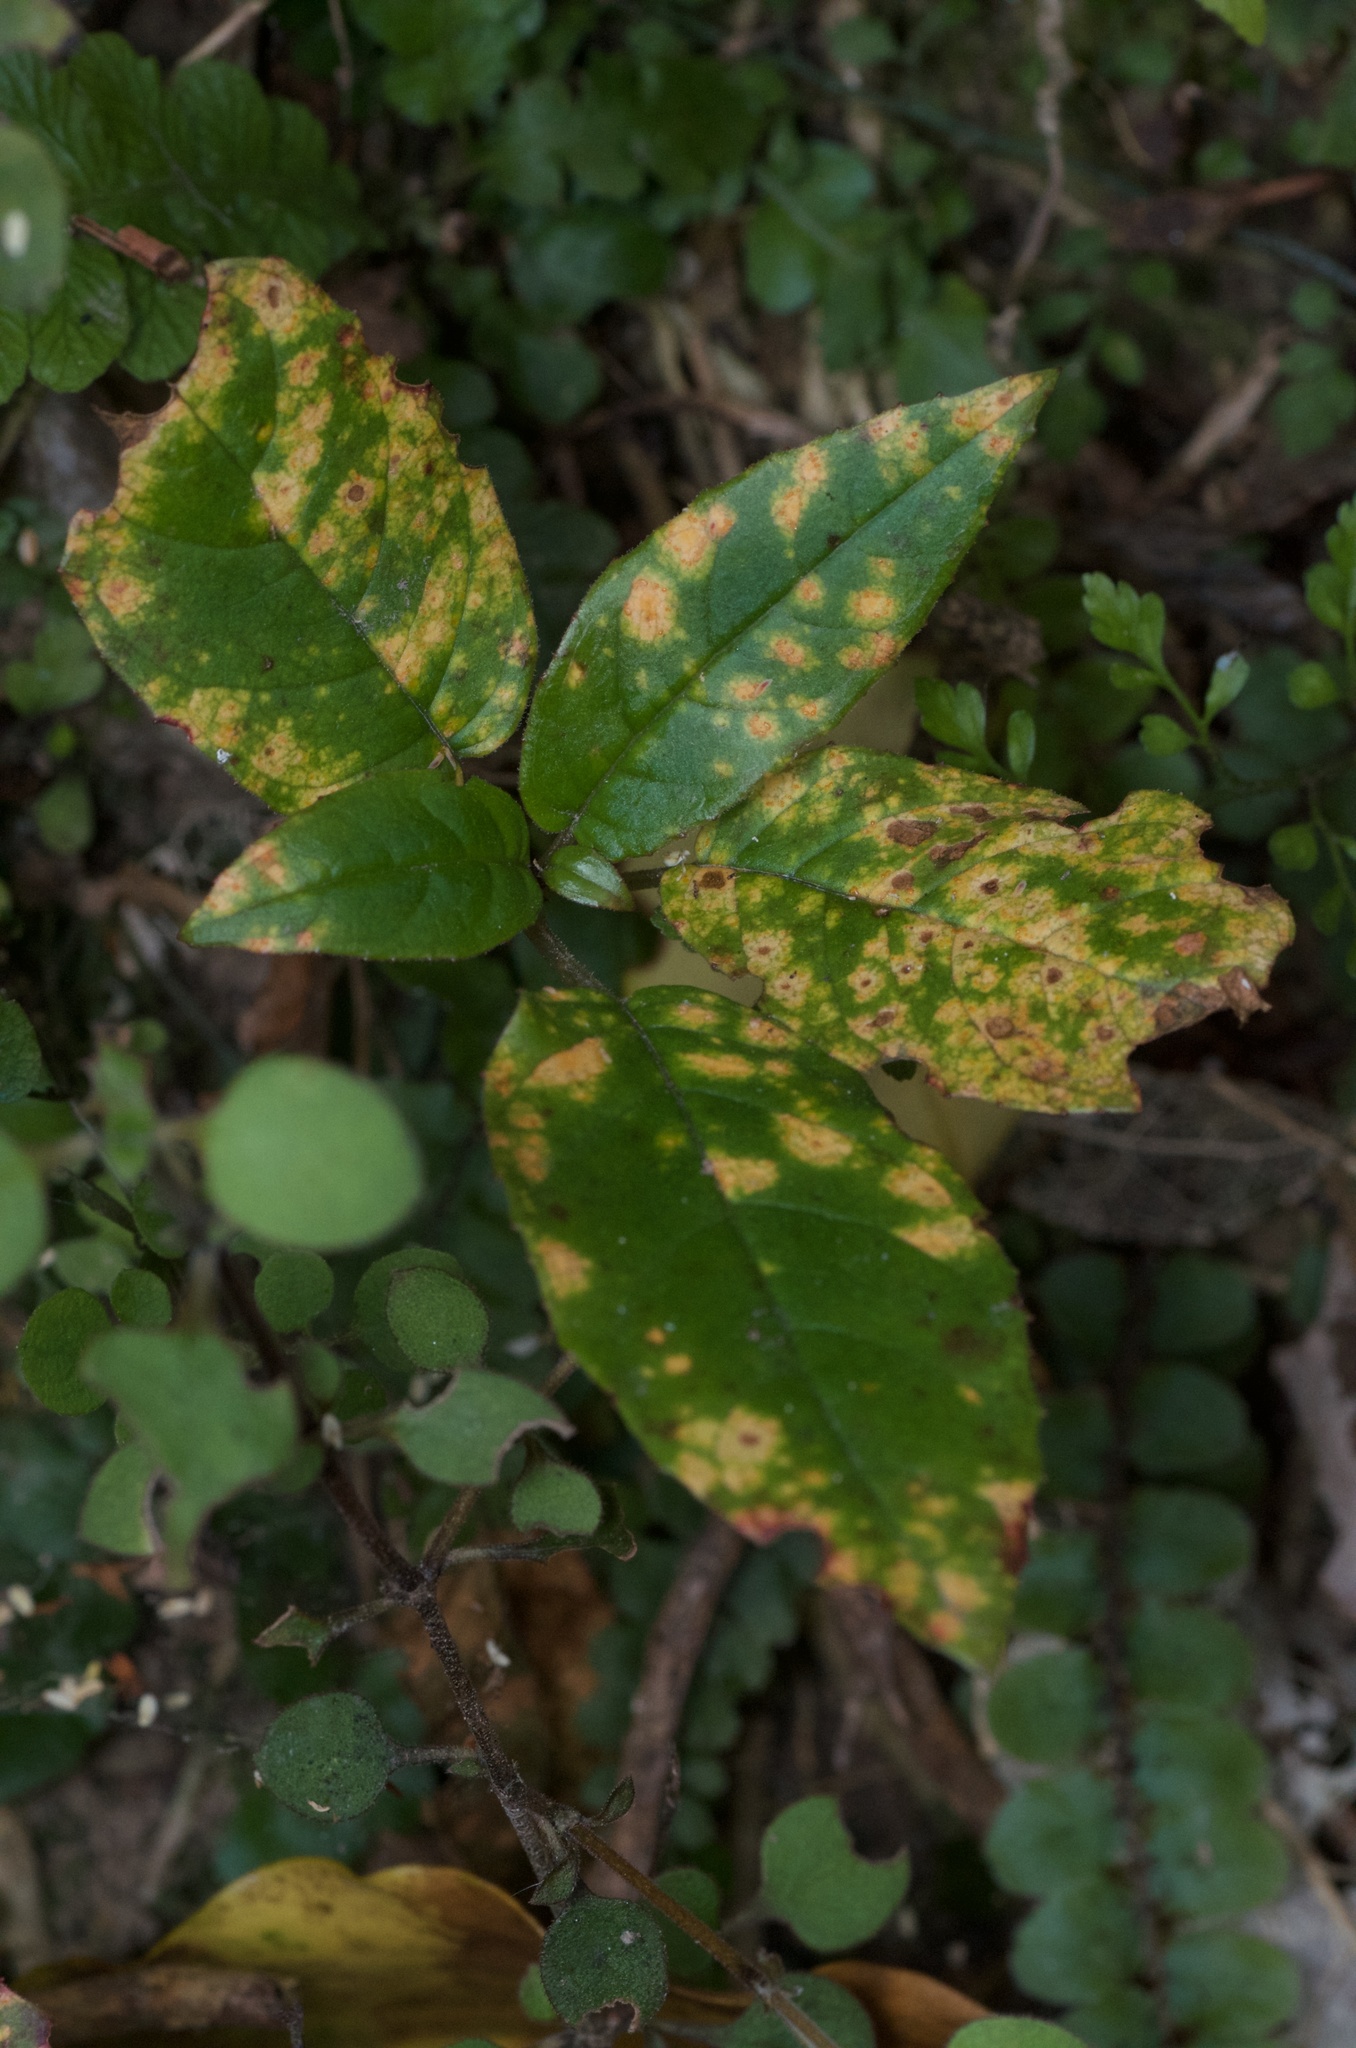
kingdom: Fungi
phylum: Basidiomycota
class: Pucciniomycetes
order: Pucciniales
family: Mikronegeriaceae
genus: Mikronegeria
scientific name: Mikronegeria fuchsiae
